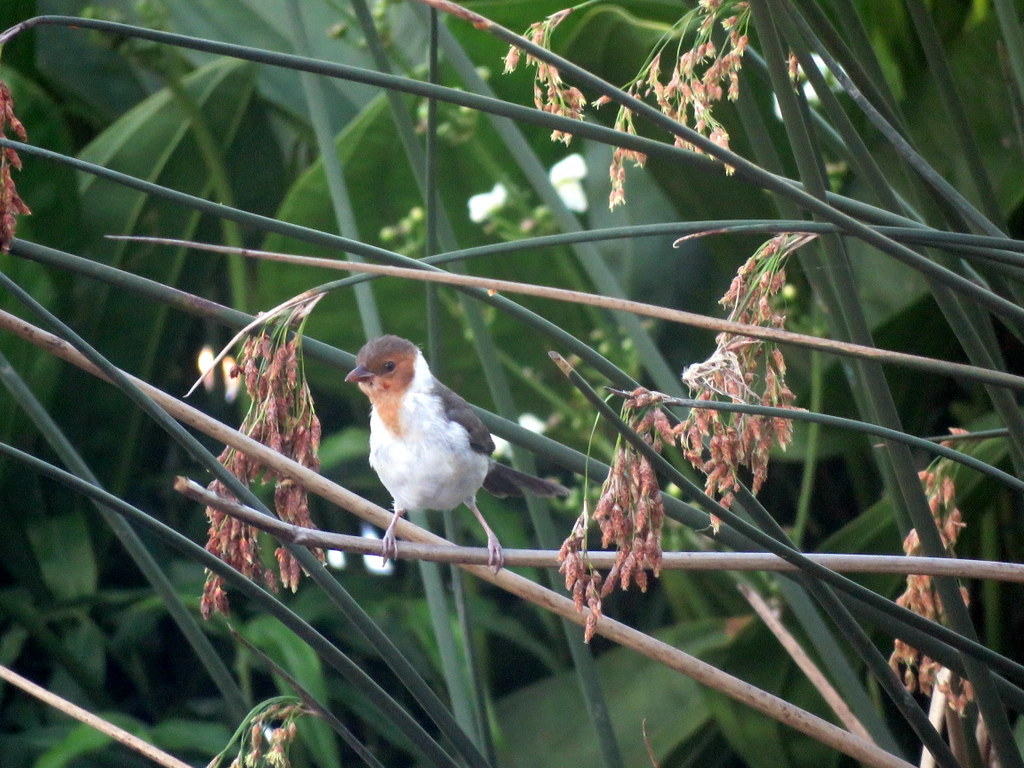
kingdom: Animalia
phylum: Chordata
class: Aves
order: Passeriformes
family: Thraupidae
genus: Paroaria
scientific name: Paroaria capitata
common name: Yellow-billed cardinal
